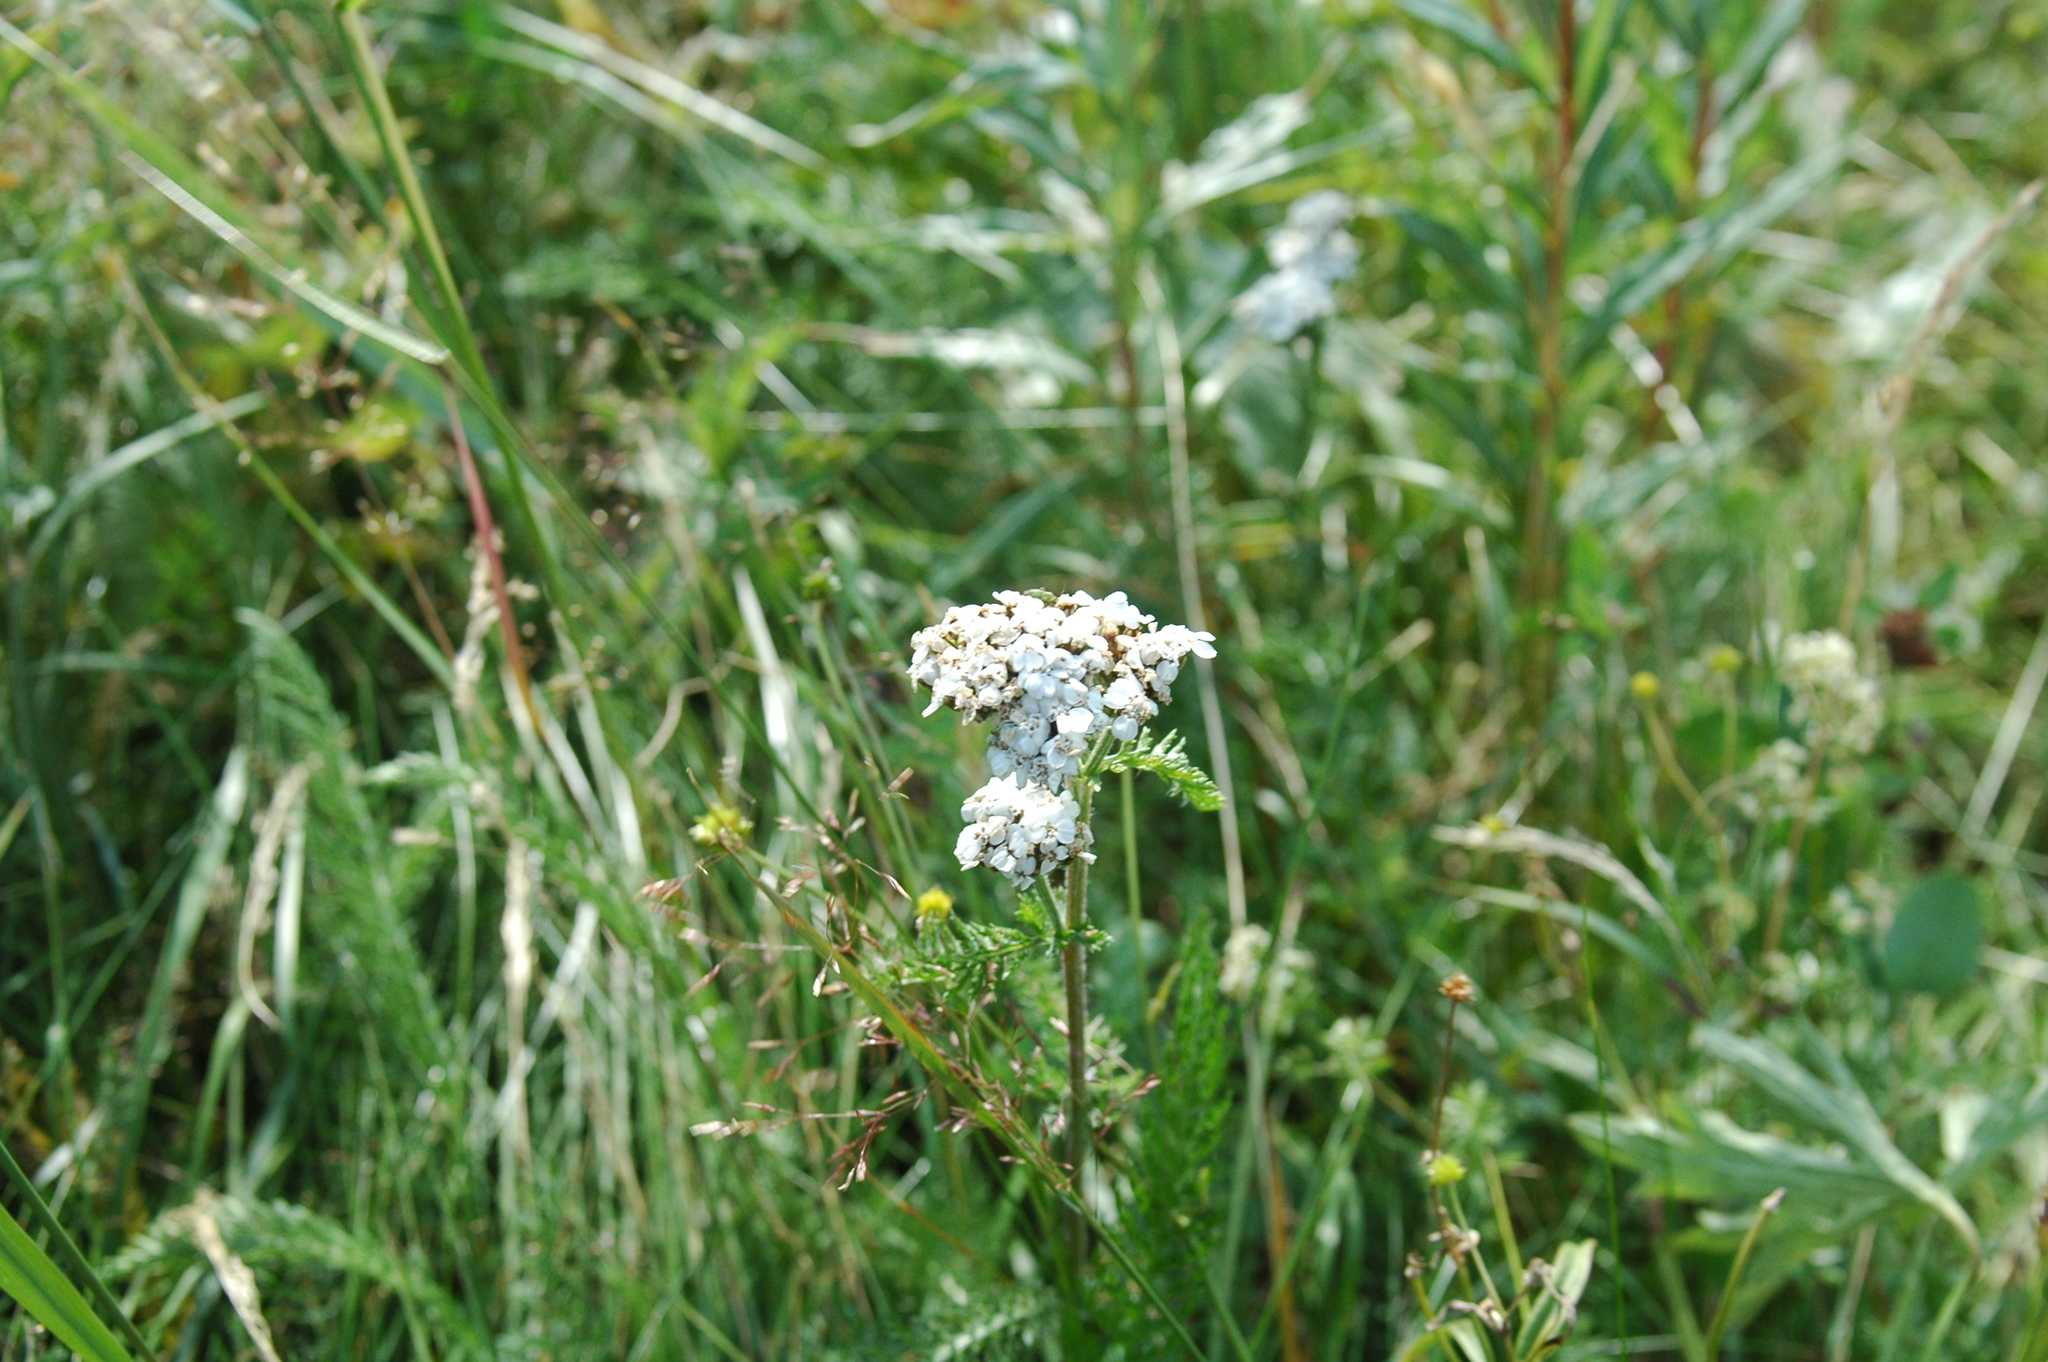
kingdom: Plantae
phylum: Tracheophyta
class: Magnoliopsida
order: Asterales
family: Asteraceae
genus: Achillea
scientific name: Achillea millefolium
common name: Yarrow
